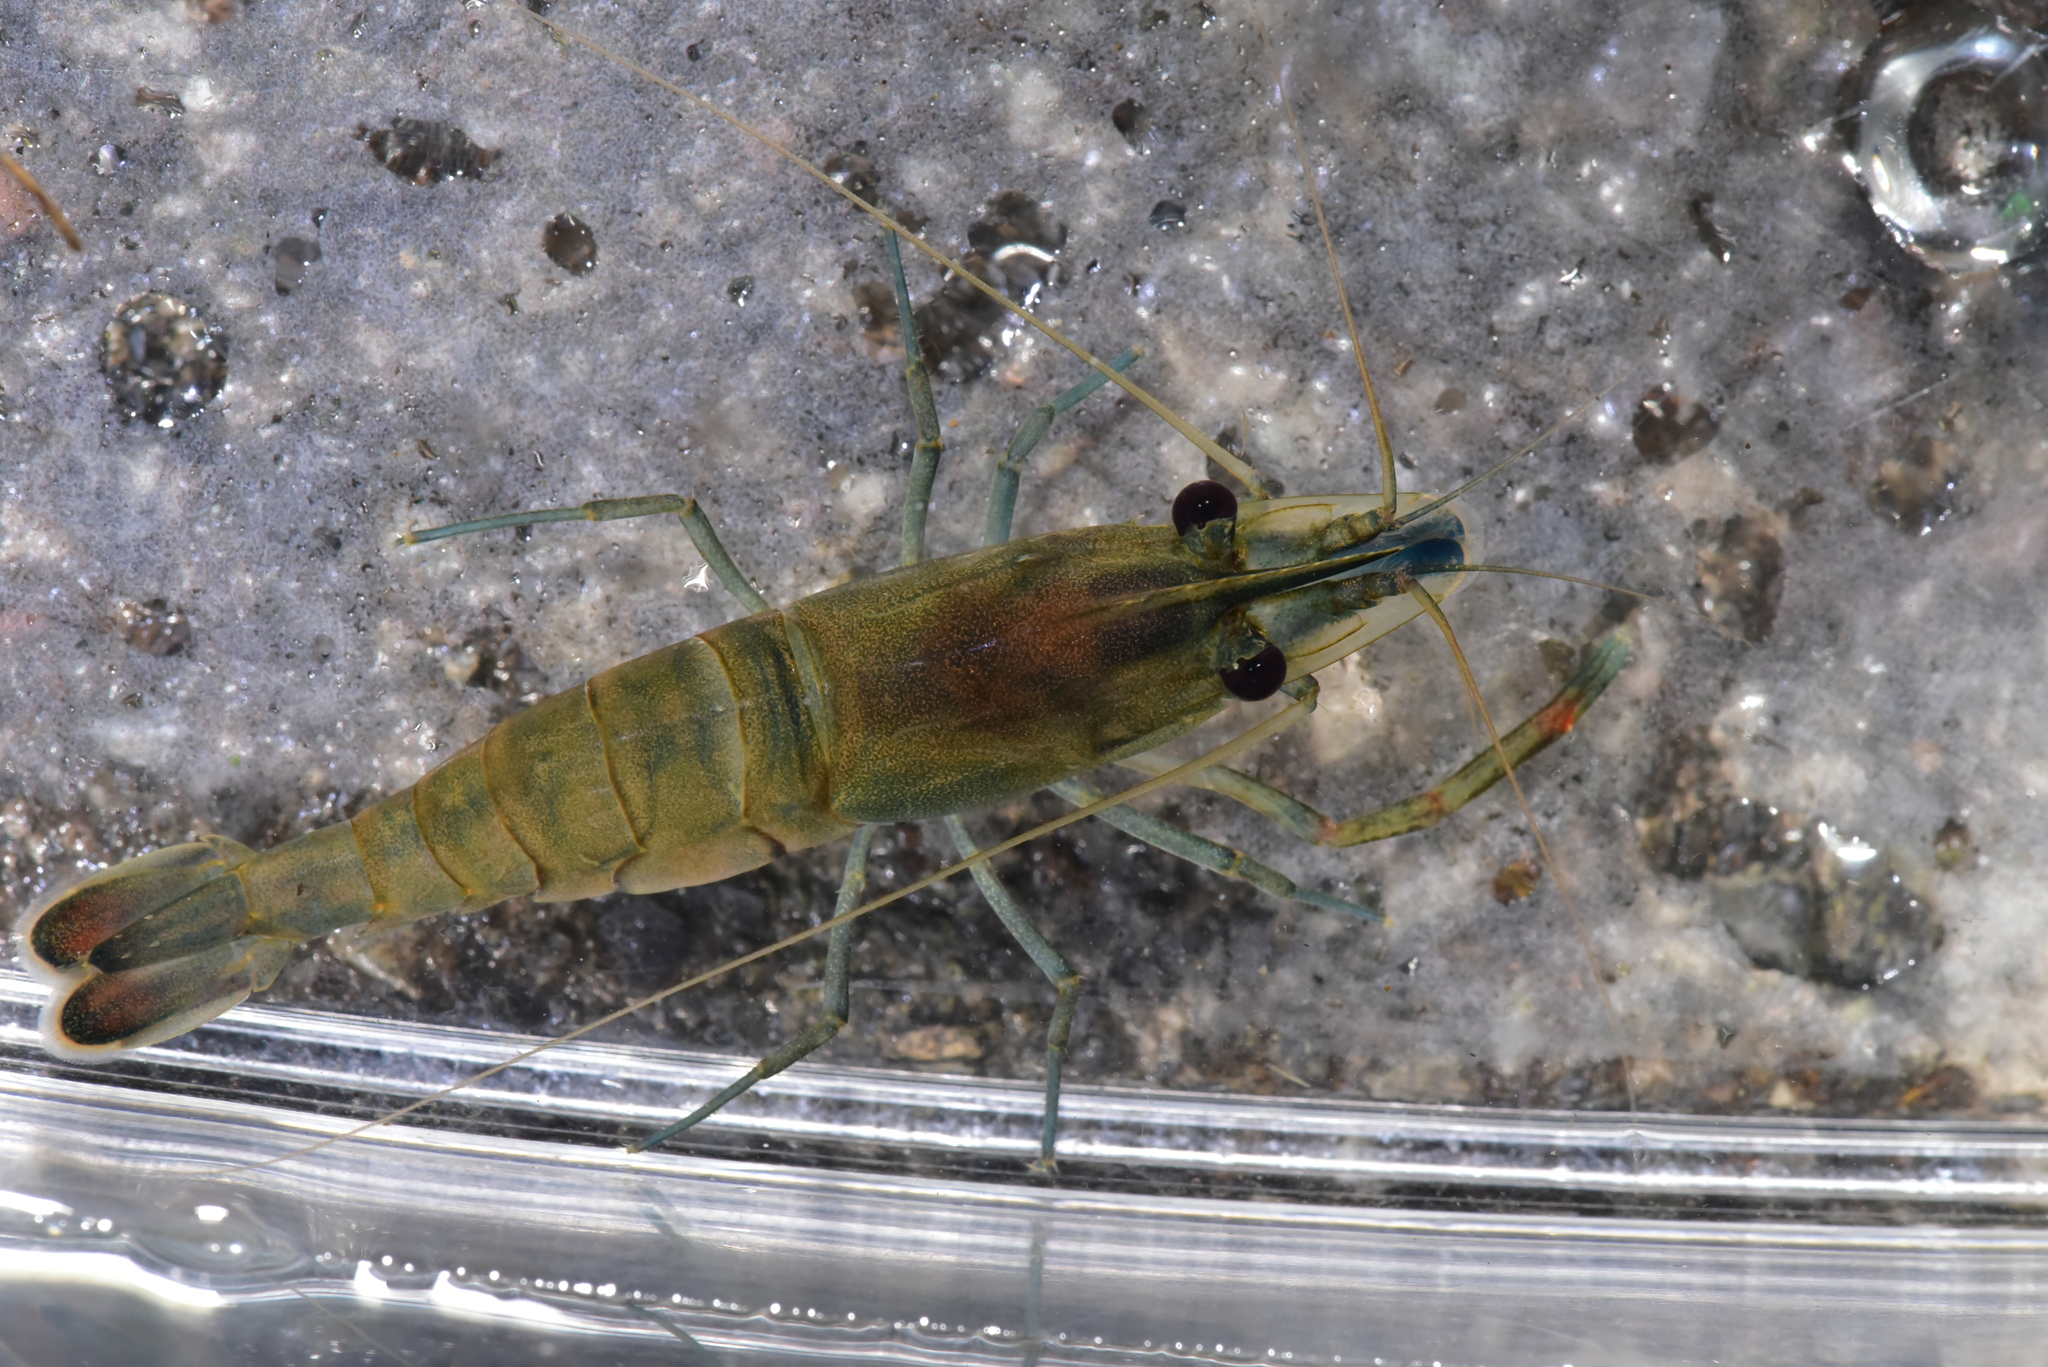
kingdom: Animalia
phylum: Arthropoda
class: Malacostraca
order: Decapoda
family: Palaemonidae
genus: Macrobrachium
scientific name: Macrobrachium lar
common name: Monkey river prawn
